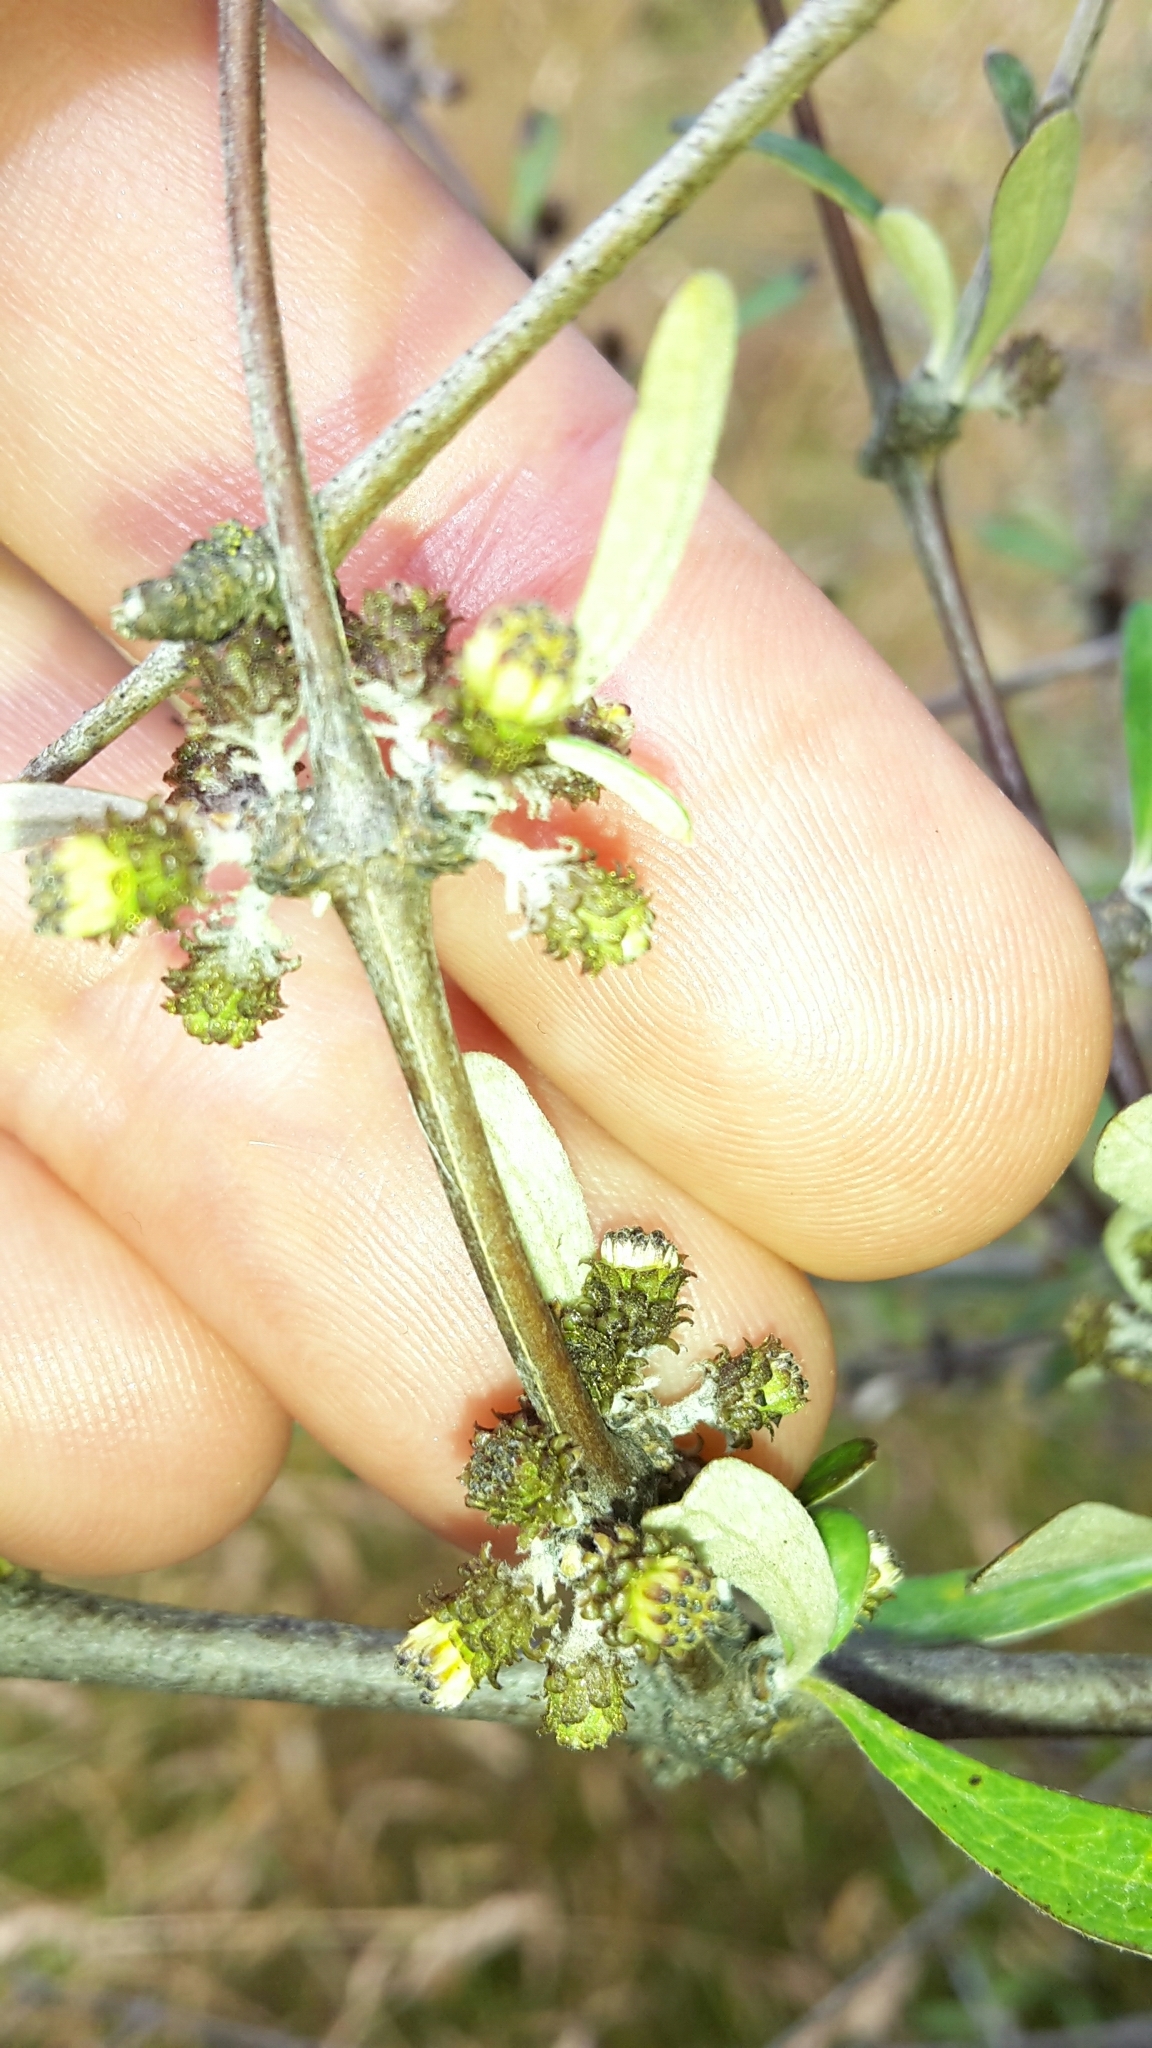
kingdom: Plantae
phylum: Tracheophyta
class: Magnoliopsida
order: Asterales
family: Asteraceae
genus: Olearia
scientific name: Olearia odorata
